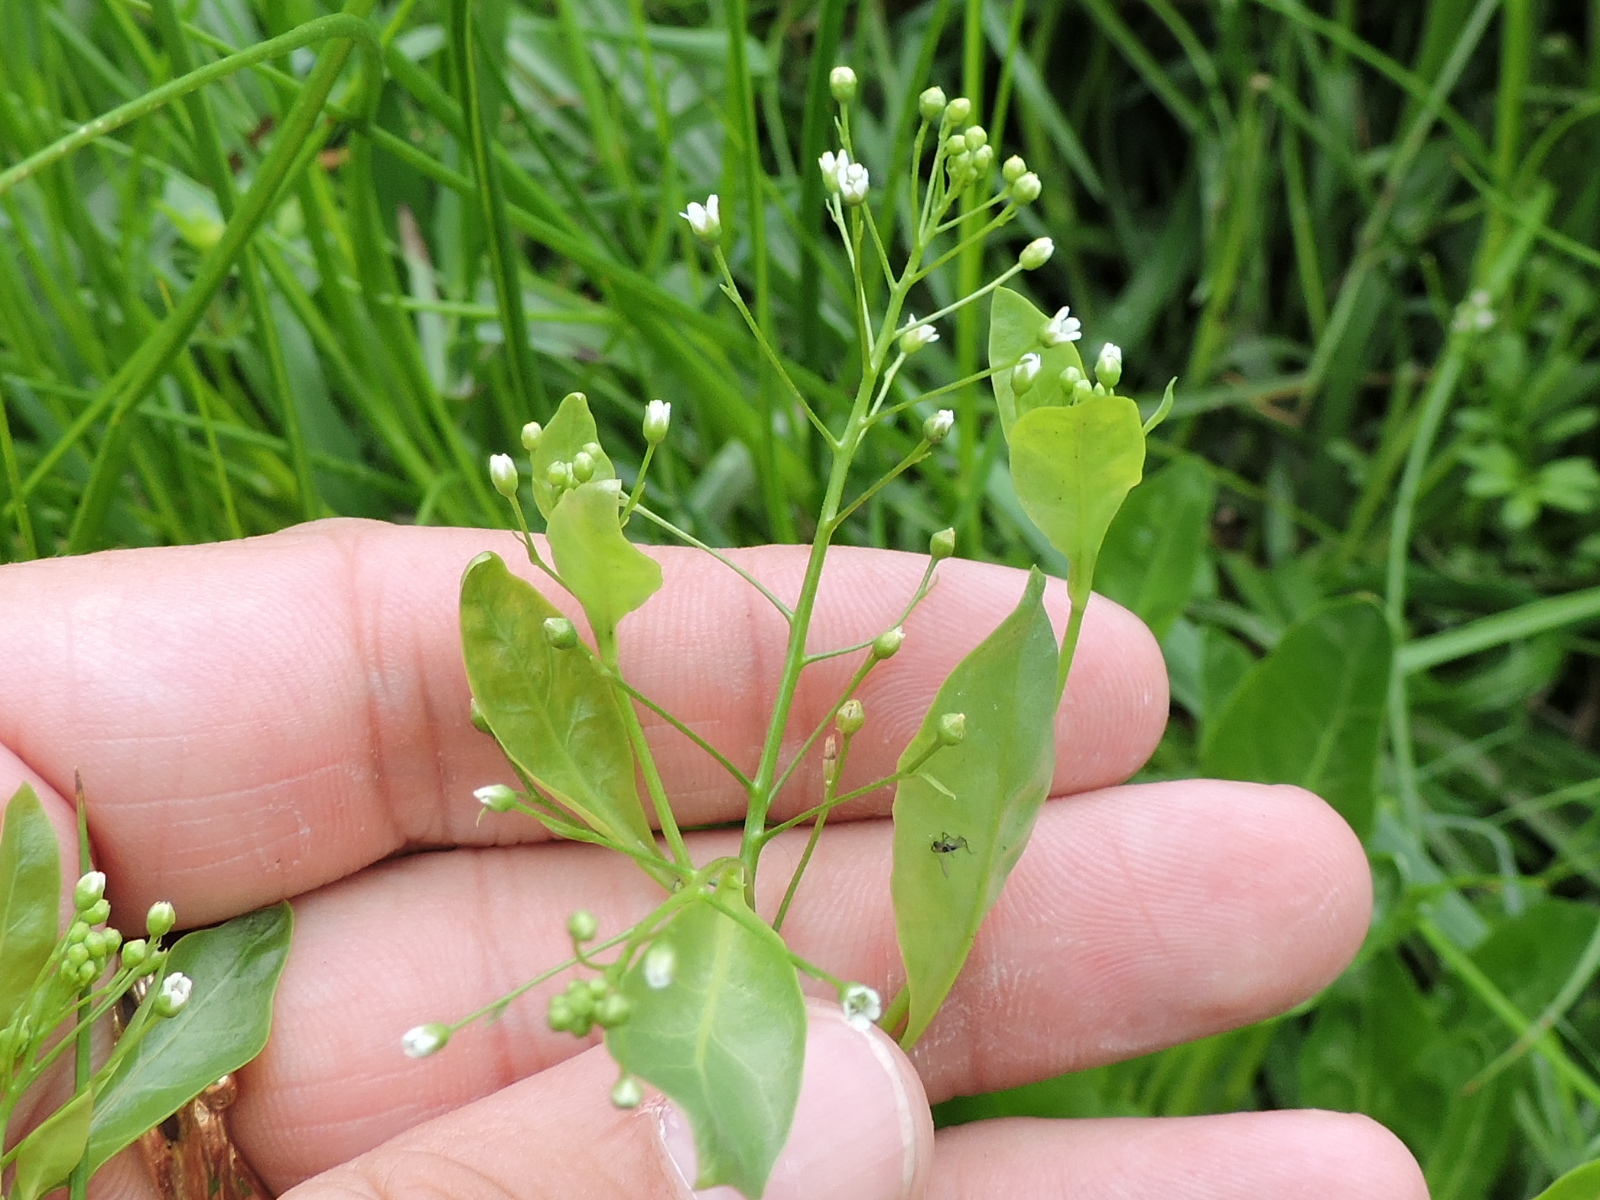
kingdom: Plantae
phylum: Tracheophyta
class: Magnoliopsida
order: Ericales
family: Primulaceae
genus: Samolus
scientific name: Samolus parviflorus
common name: False water pimpernel
